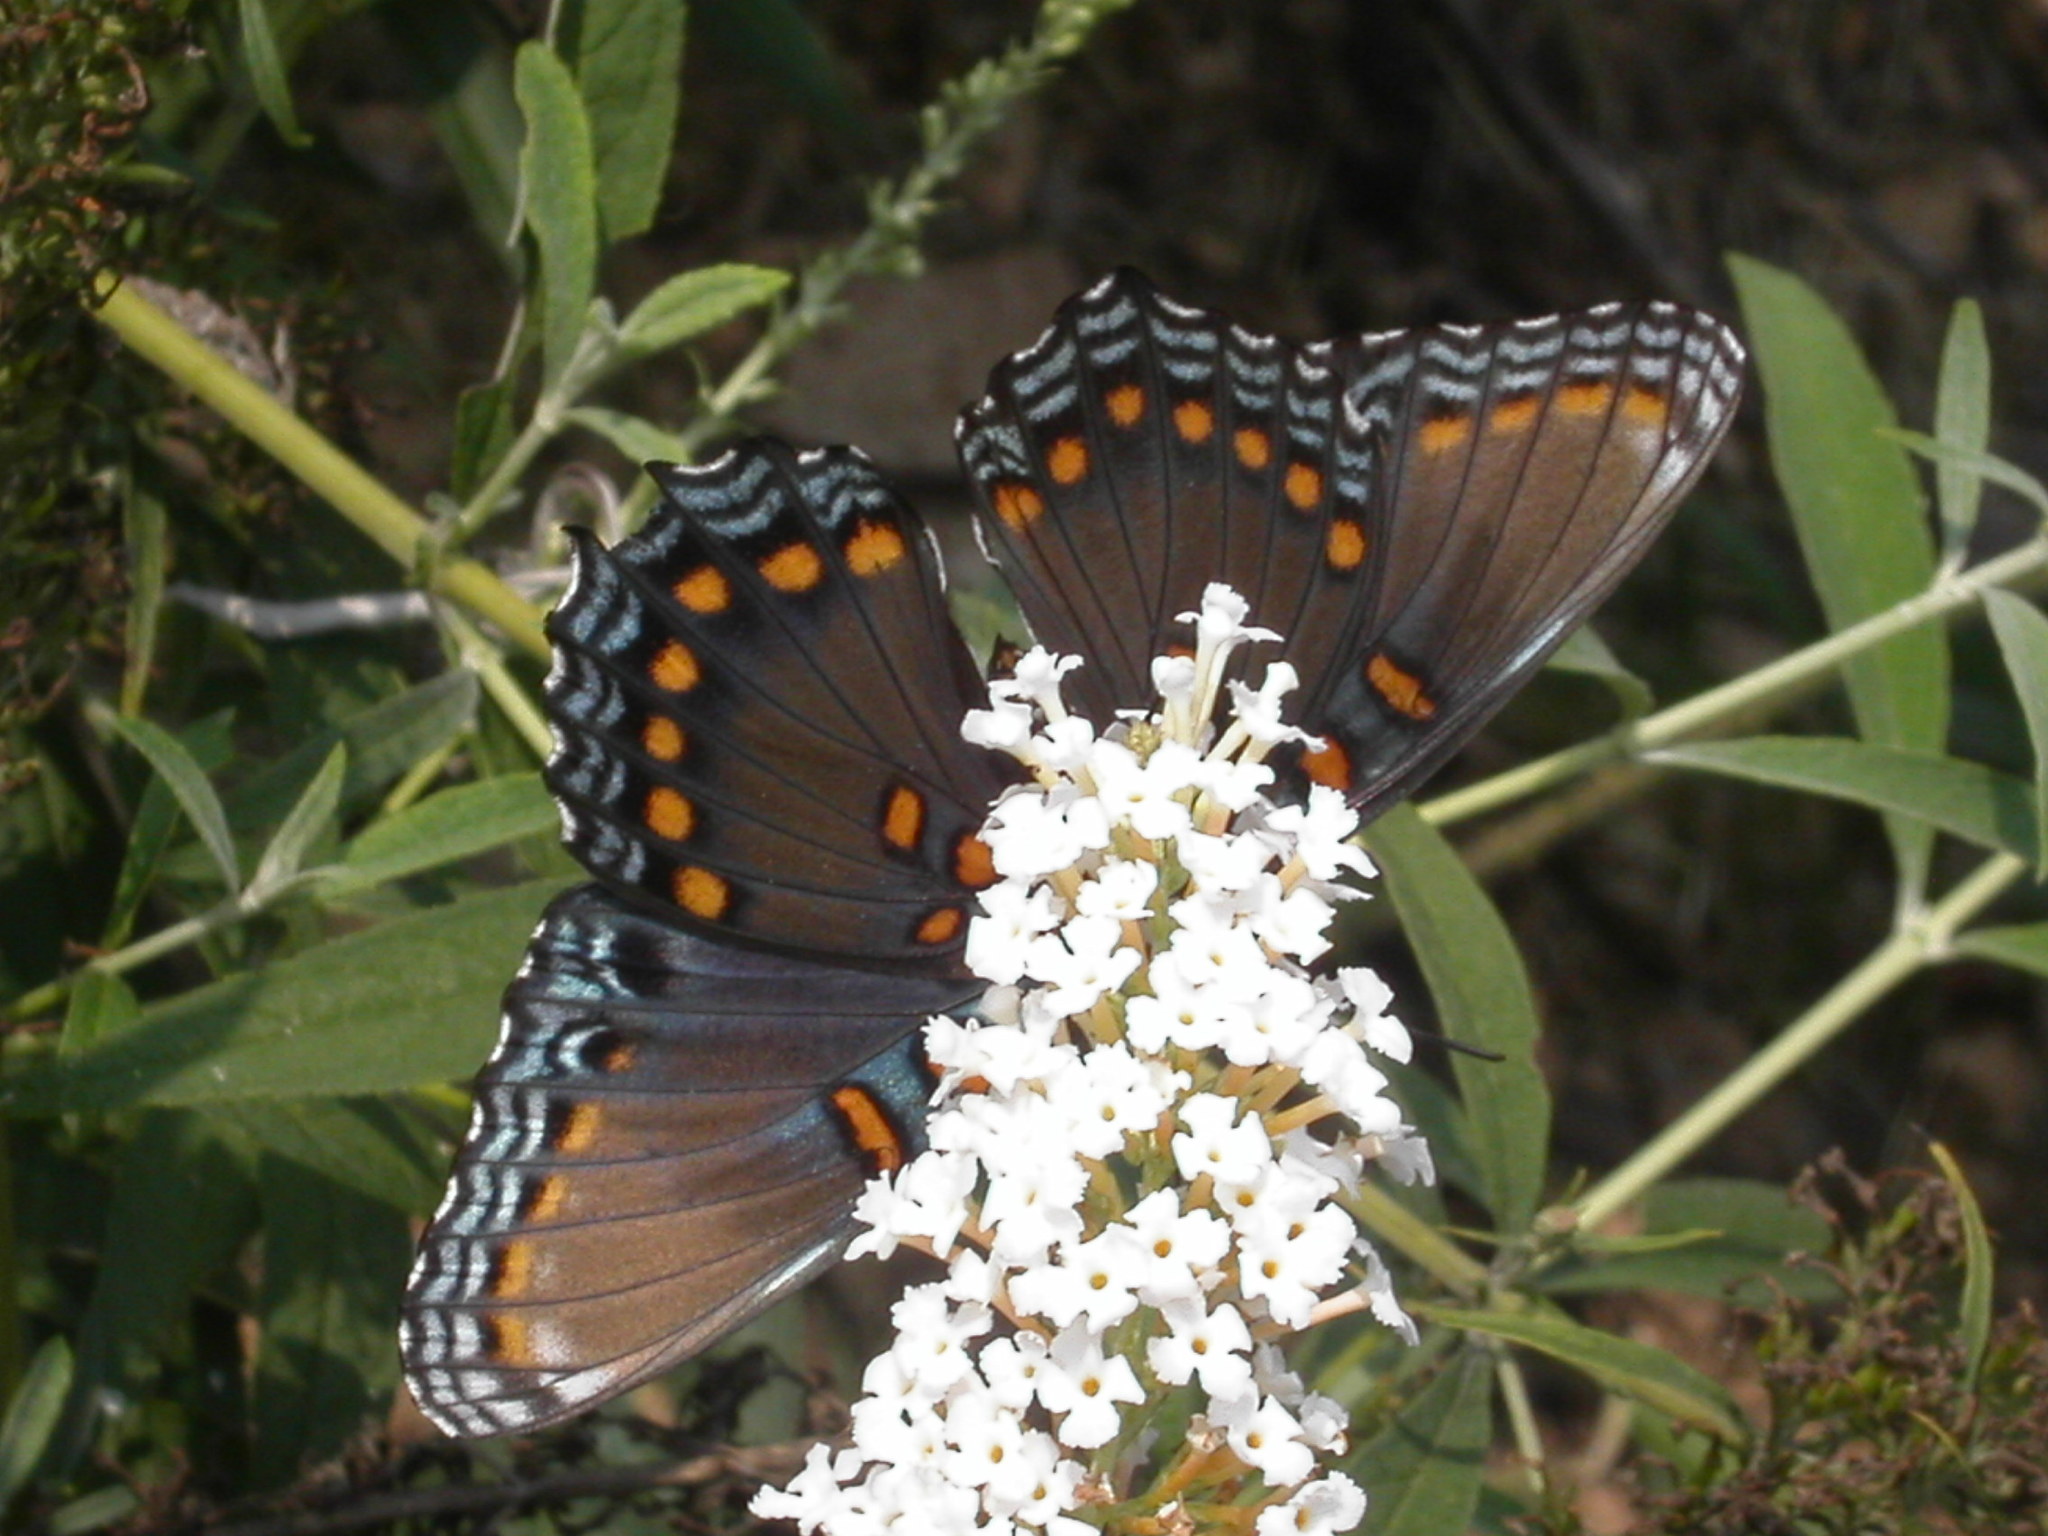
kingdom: Animalia
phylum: Arthropoda
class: Insecta
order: Lepidoptera
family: Nymphalidae
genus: Limenitis
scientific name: Limenitis astyanax
